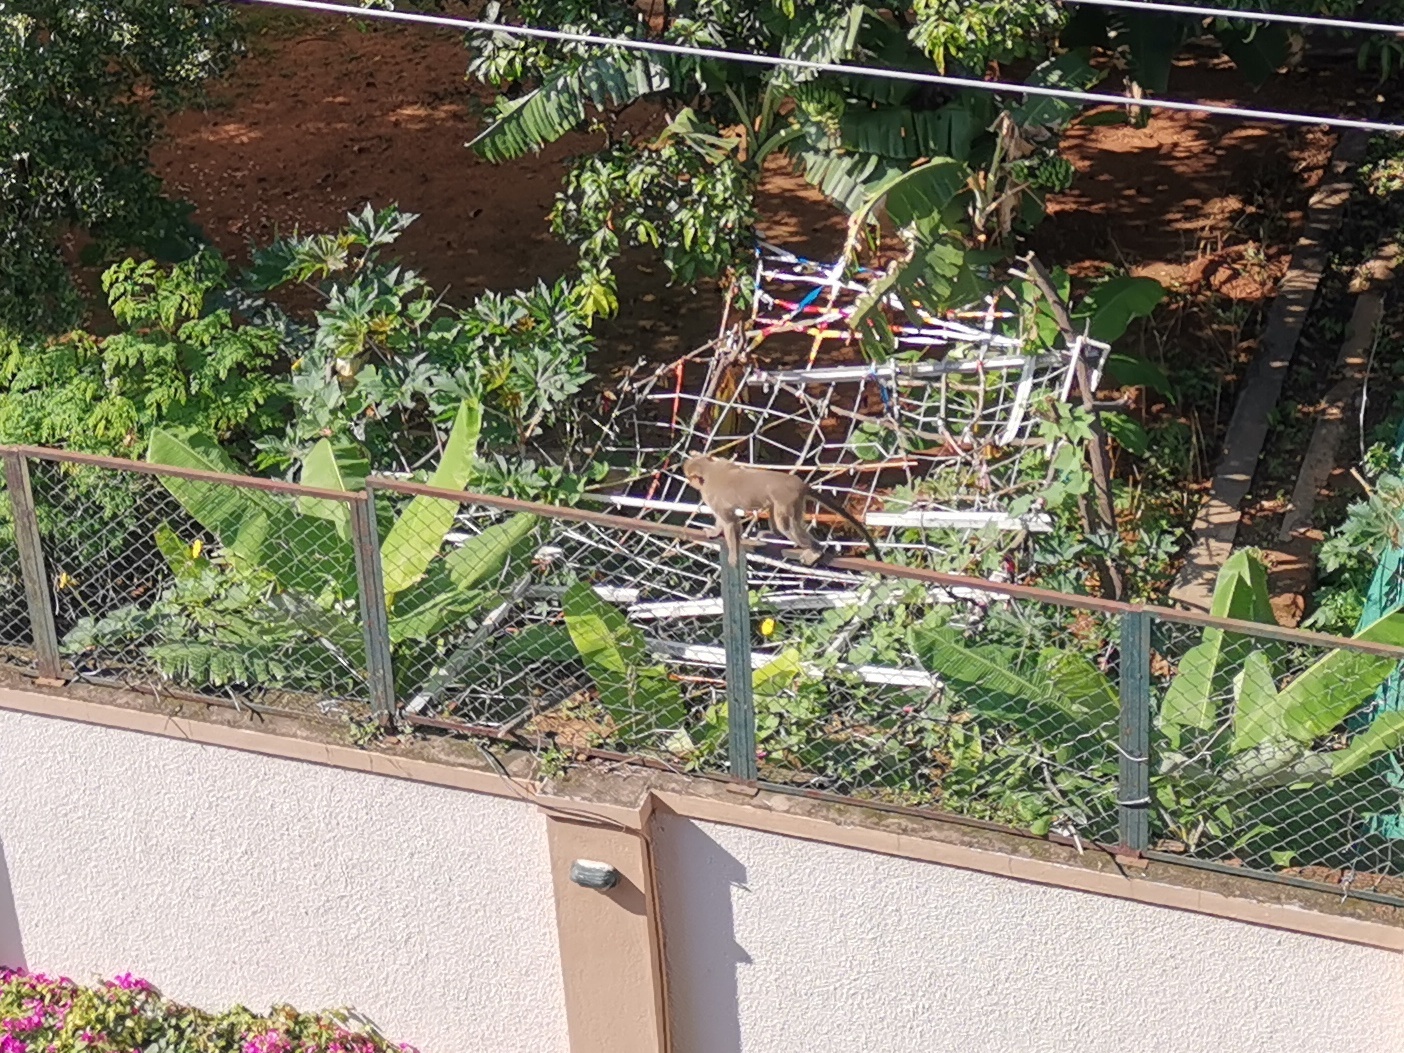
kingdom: Animalia
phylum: Chordata
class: Mammalia
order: Primates
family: Cercopithecidae
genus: Macaca
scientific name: Macaca radiata
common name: Bonnet macaque
